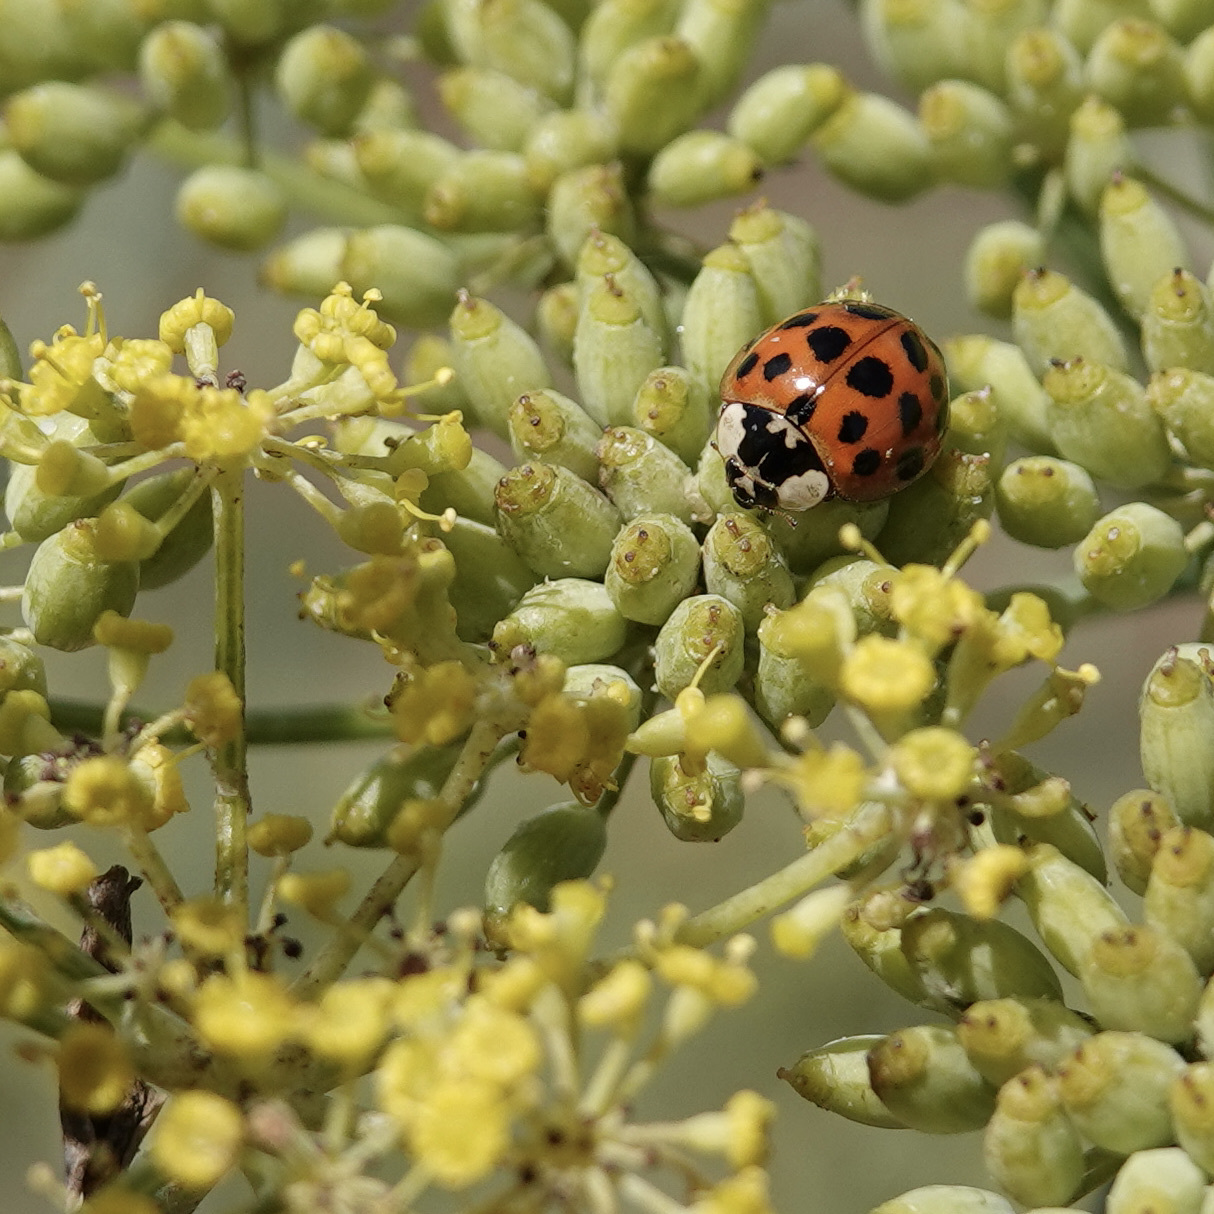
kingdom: Animalia
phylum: Arthropoda
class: Insecta
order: Coleoptera
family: Coccinellidae
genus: Harmonia
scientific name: Harmonia axyridis
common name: Harlequin ladybird
